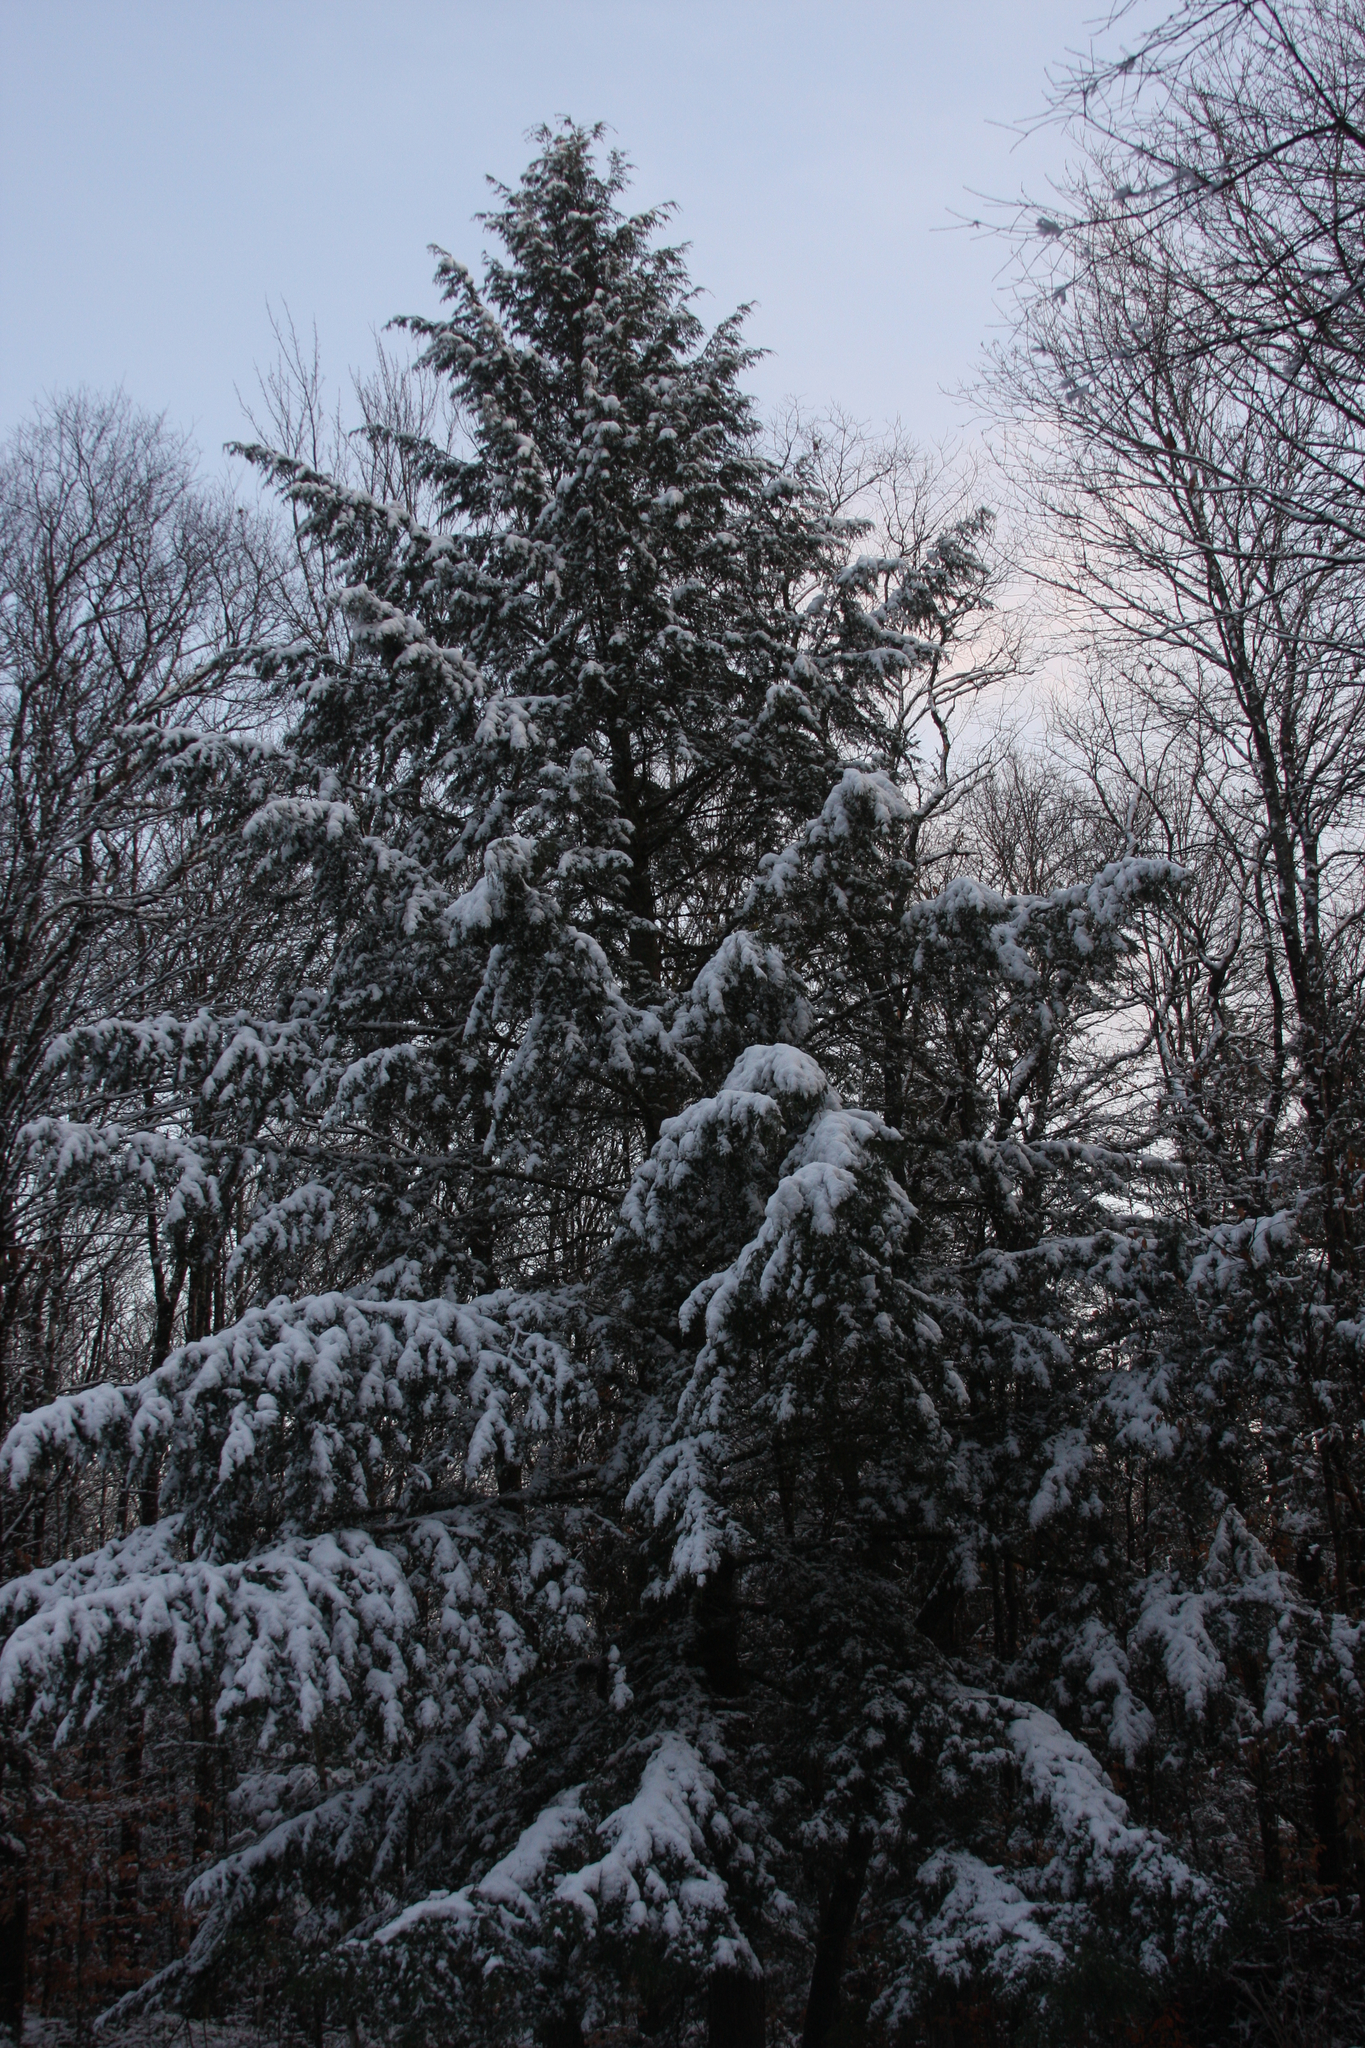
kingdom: Plantae
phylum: Tracheophyta
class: Pinopsida
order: Pinales
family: Pinaceae
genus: Tsuga
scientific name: Tsuga canadensis
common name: Eastern hemlock
